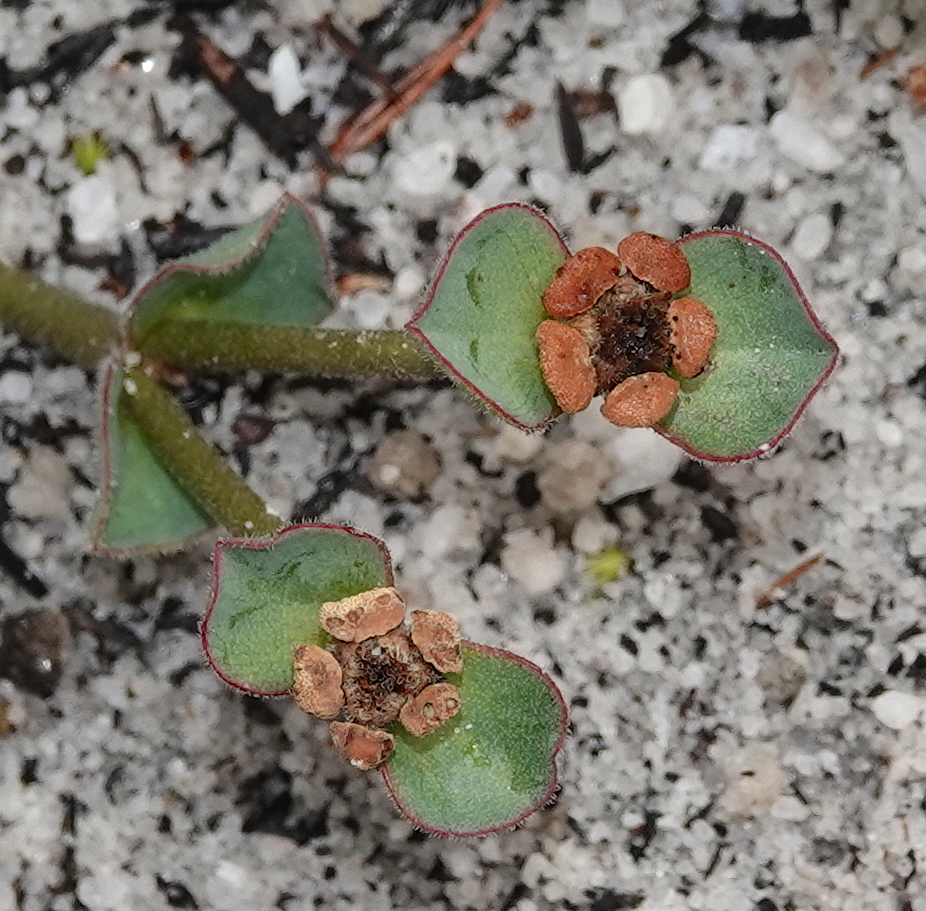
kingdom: Plantae
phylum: Tracheophyta
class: Magnoliopsida
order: Malpighiales
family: Euphorbiaceae
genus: Euphorbia
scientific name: Euphorbia tuberosa
